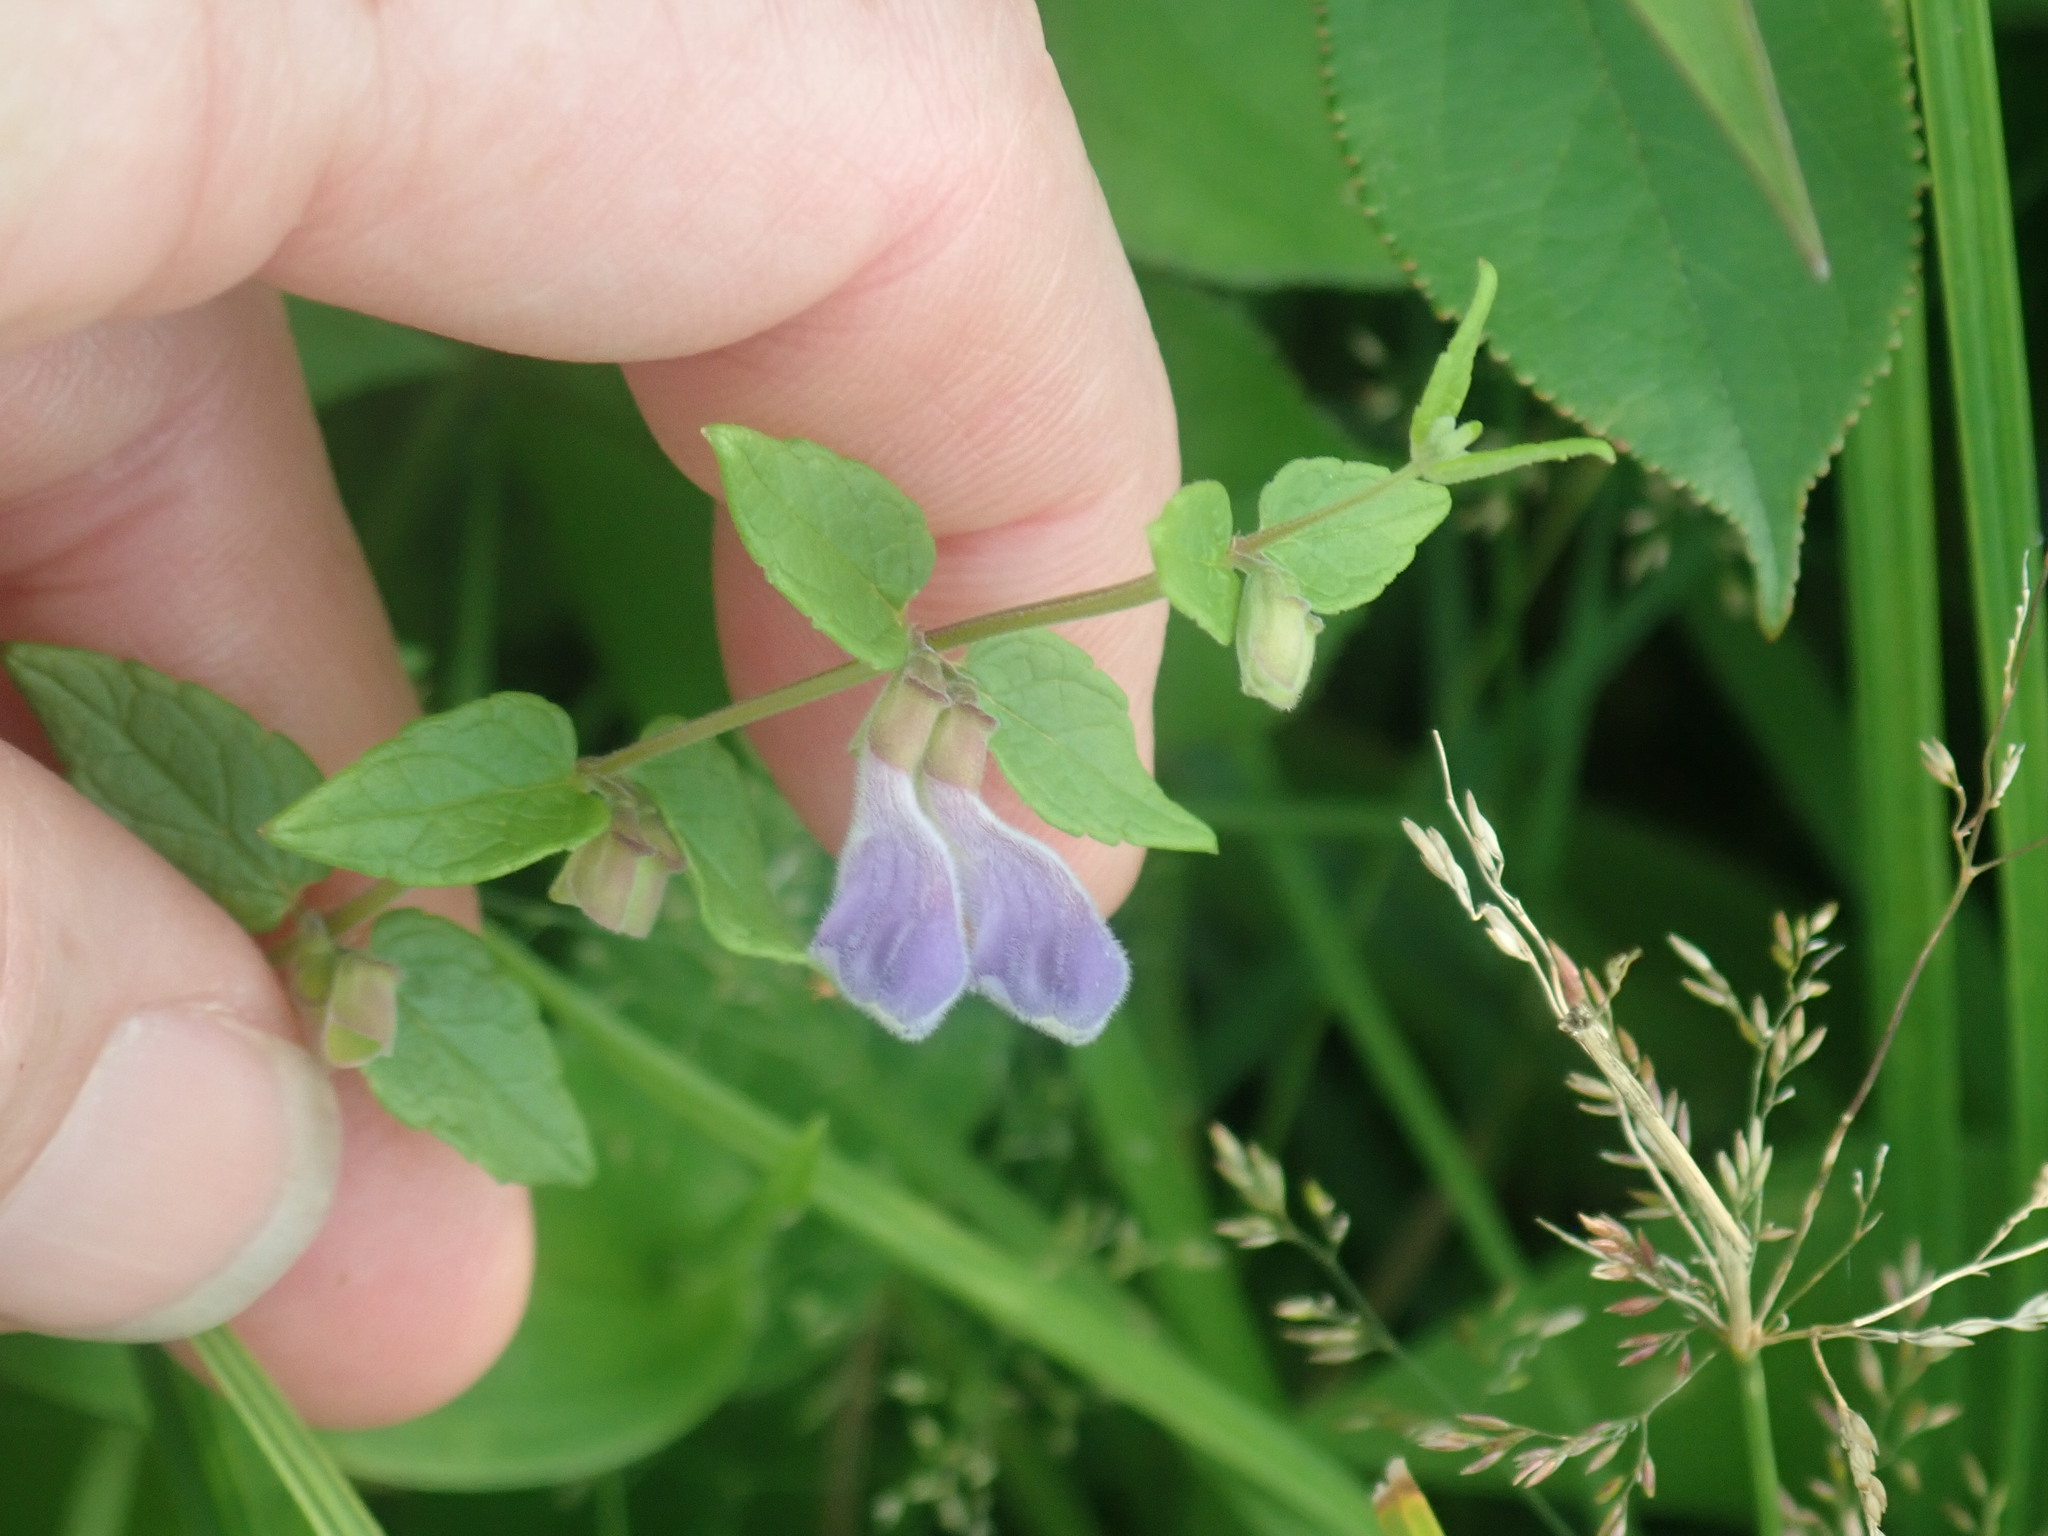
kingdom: Plantae
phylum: Tracheophyta
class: Magnoliopsida
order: Lamiales
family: Lamiaceae
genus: Scutellaria
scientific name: Scutellaria galericulata
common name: Skullcap
